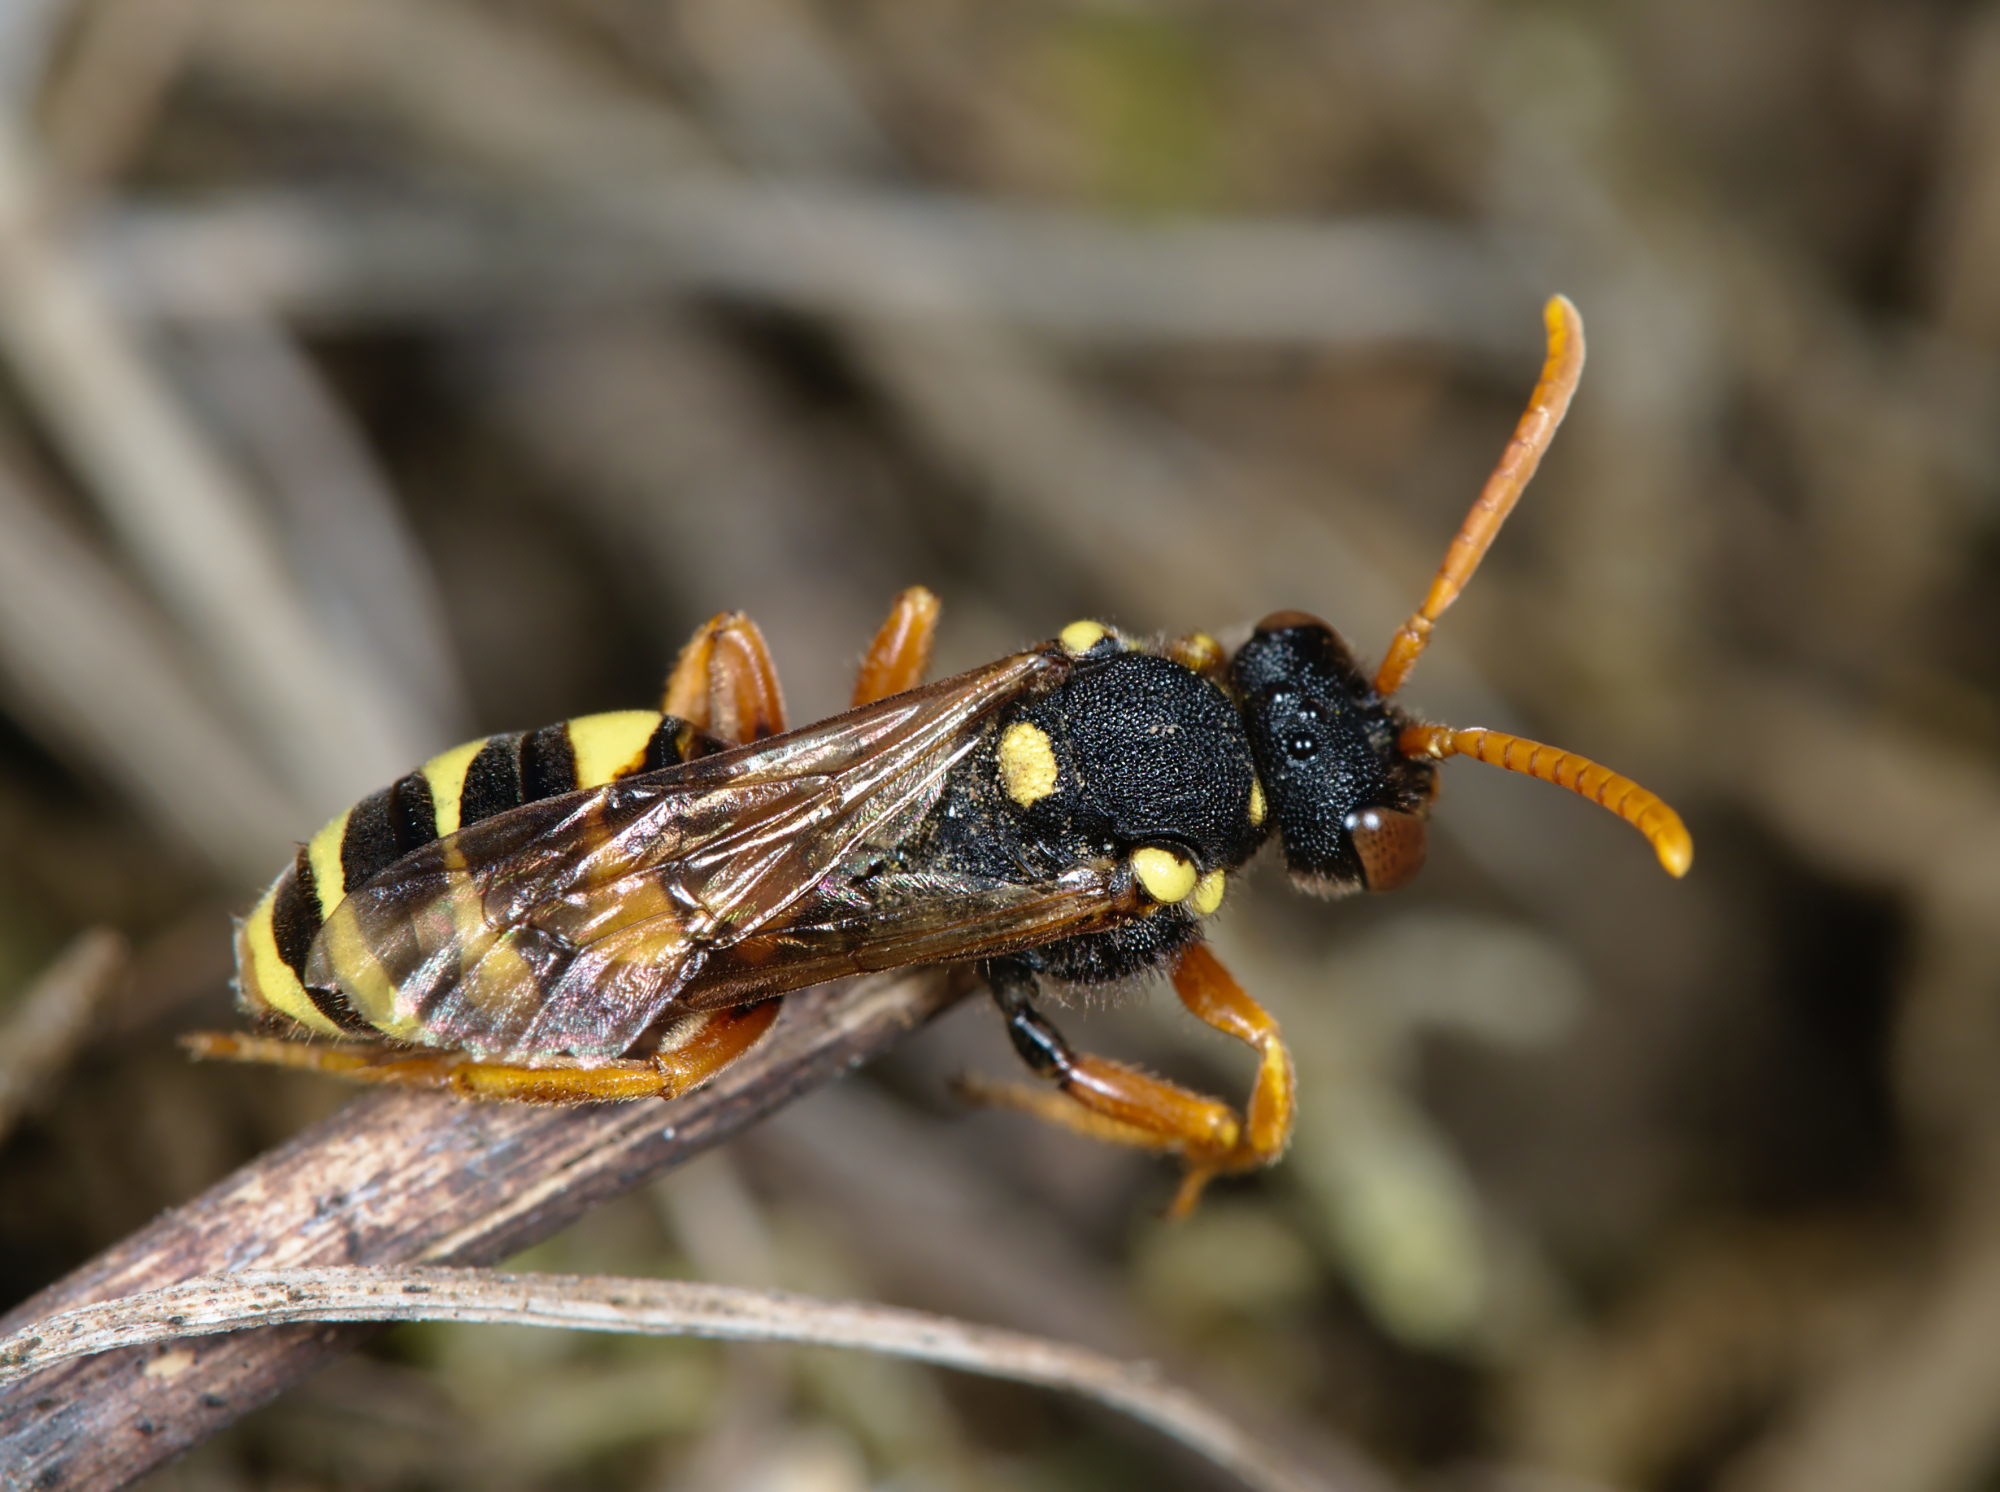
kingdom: Animalia
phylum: Arthropoda
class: Insecta
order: Hymenoptera
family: Apidae
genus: Nomada
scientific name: Nomada fucata
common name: Painted nomad bee
